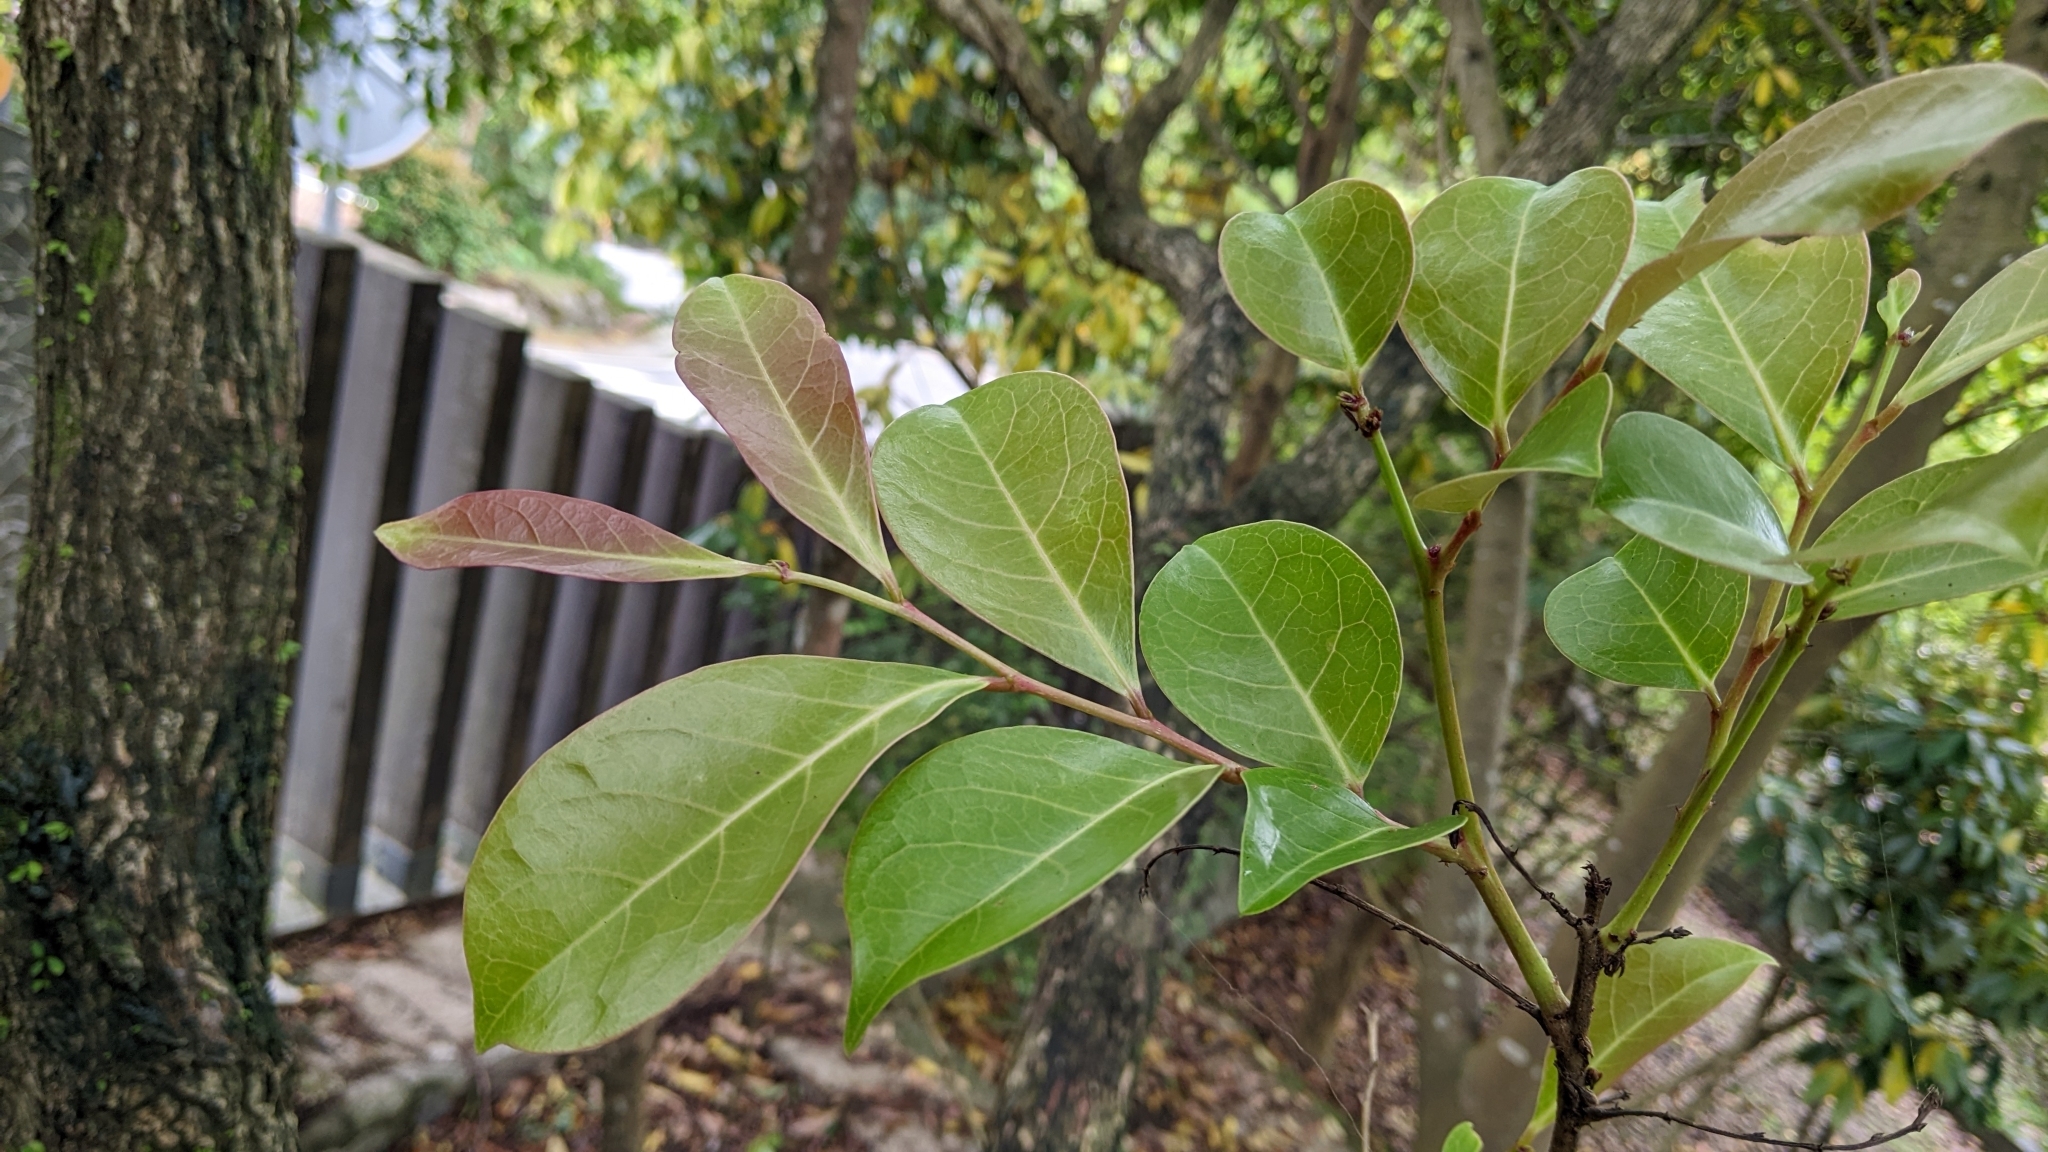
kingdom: Plantae
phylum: Tracheophyta
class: Magnoliopsida
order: Malpighiales
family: Phyllanthaceae
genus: Glochidion
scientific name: Glochidion rubrum
